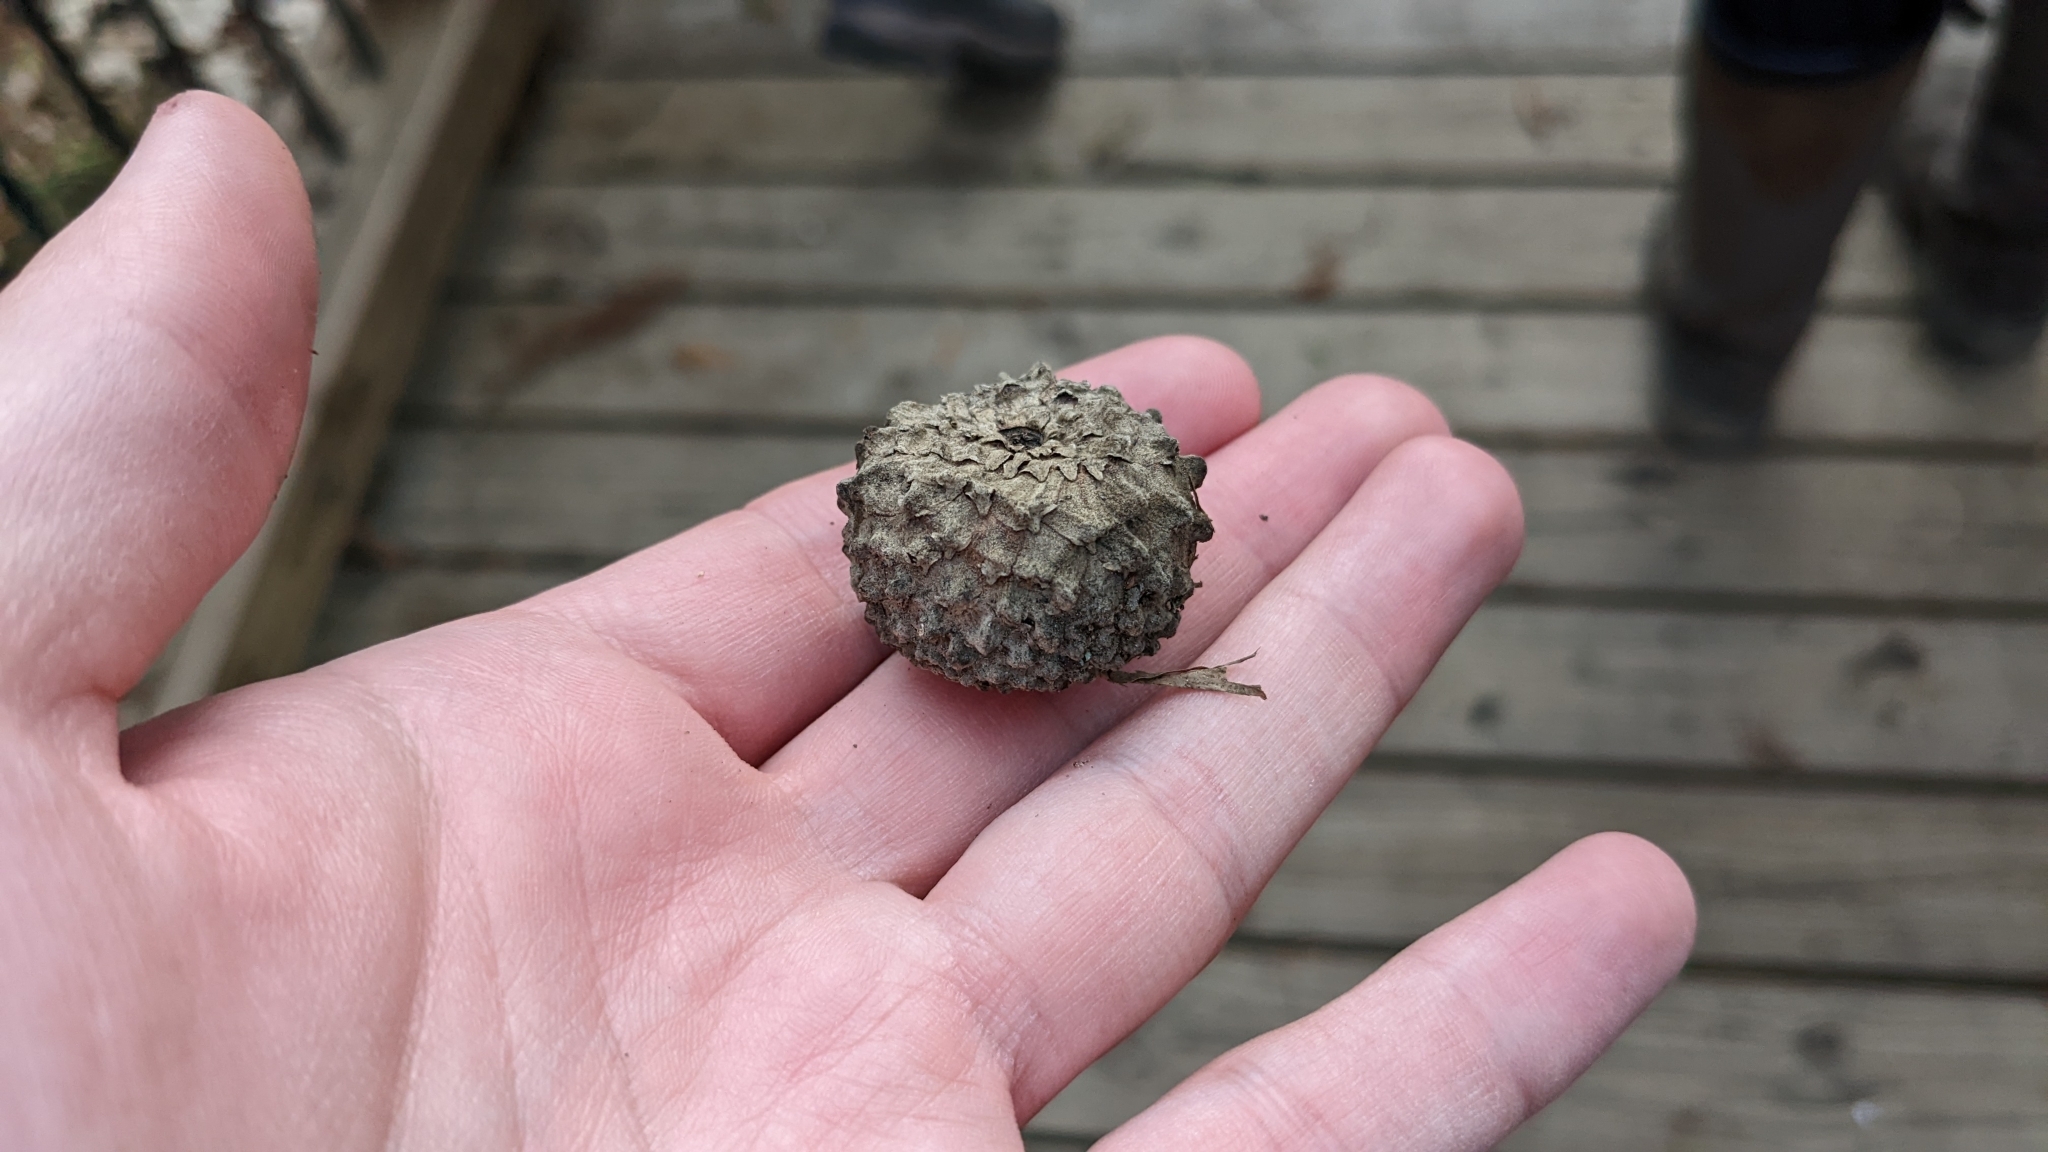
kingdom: Plantae
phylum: Tracheophyta
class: Magnoliopsida
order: Fagales
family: Fagaceae
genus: Quercus
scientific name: Quercus lyrata
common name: Overcup oak
